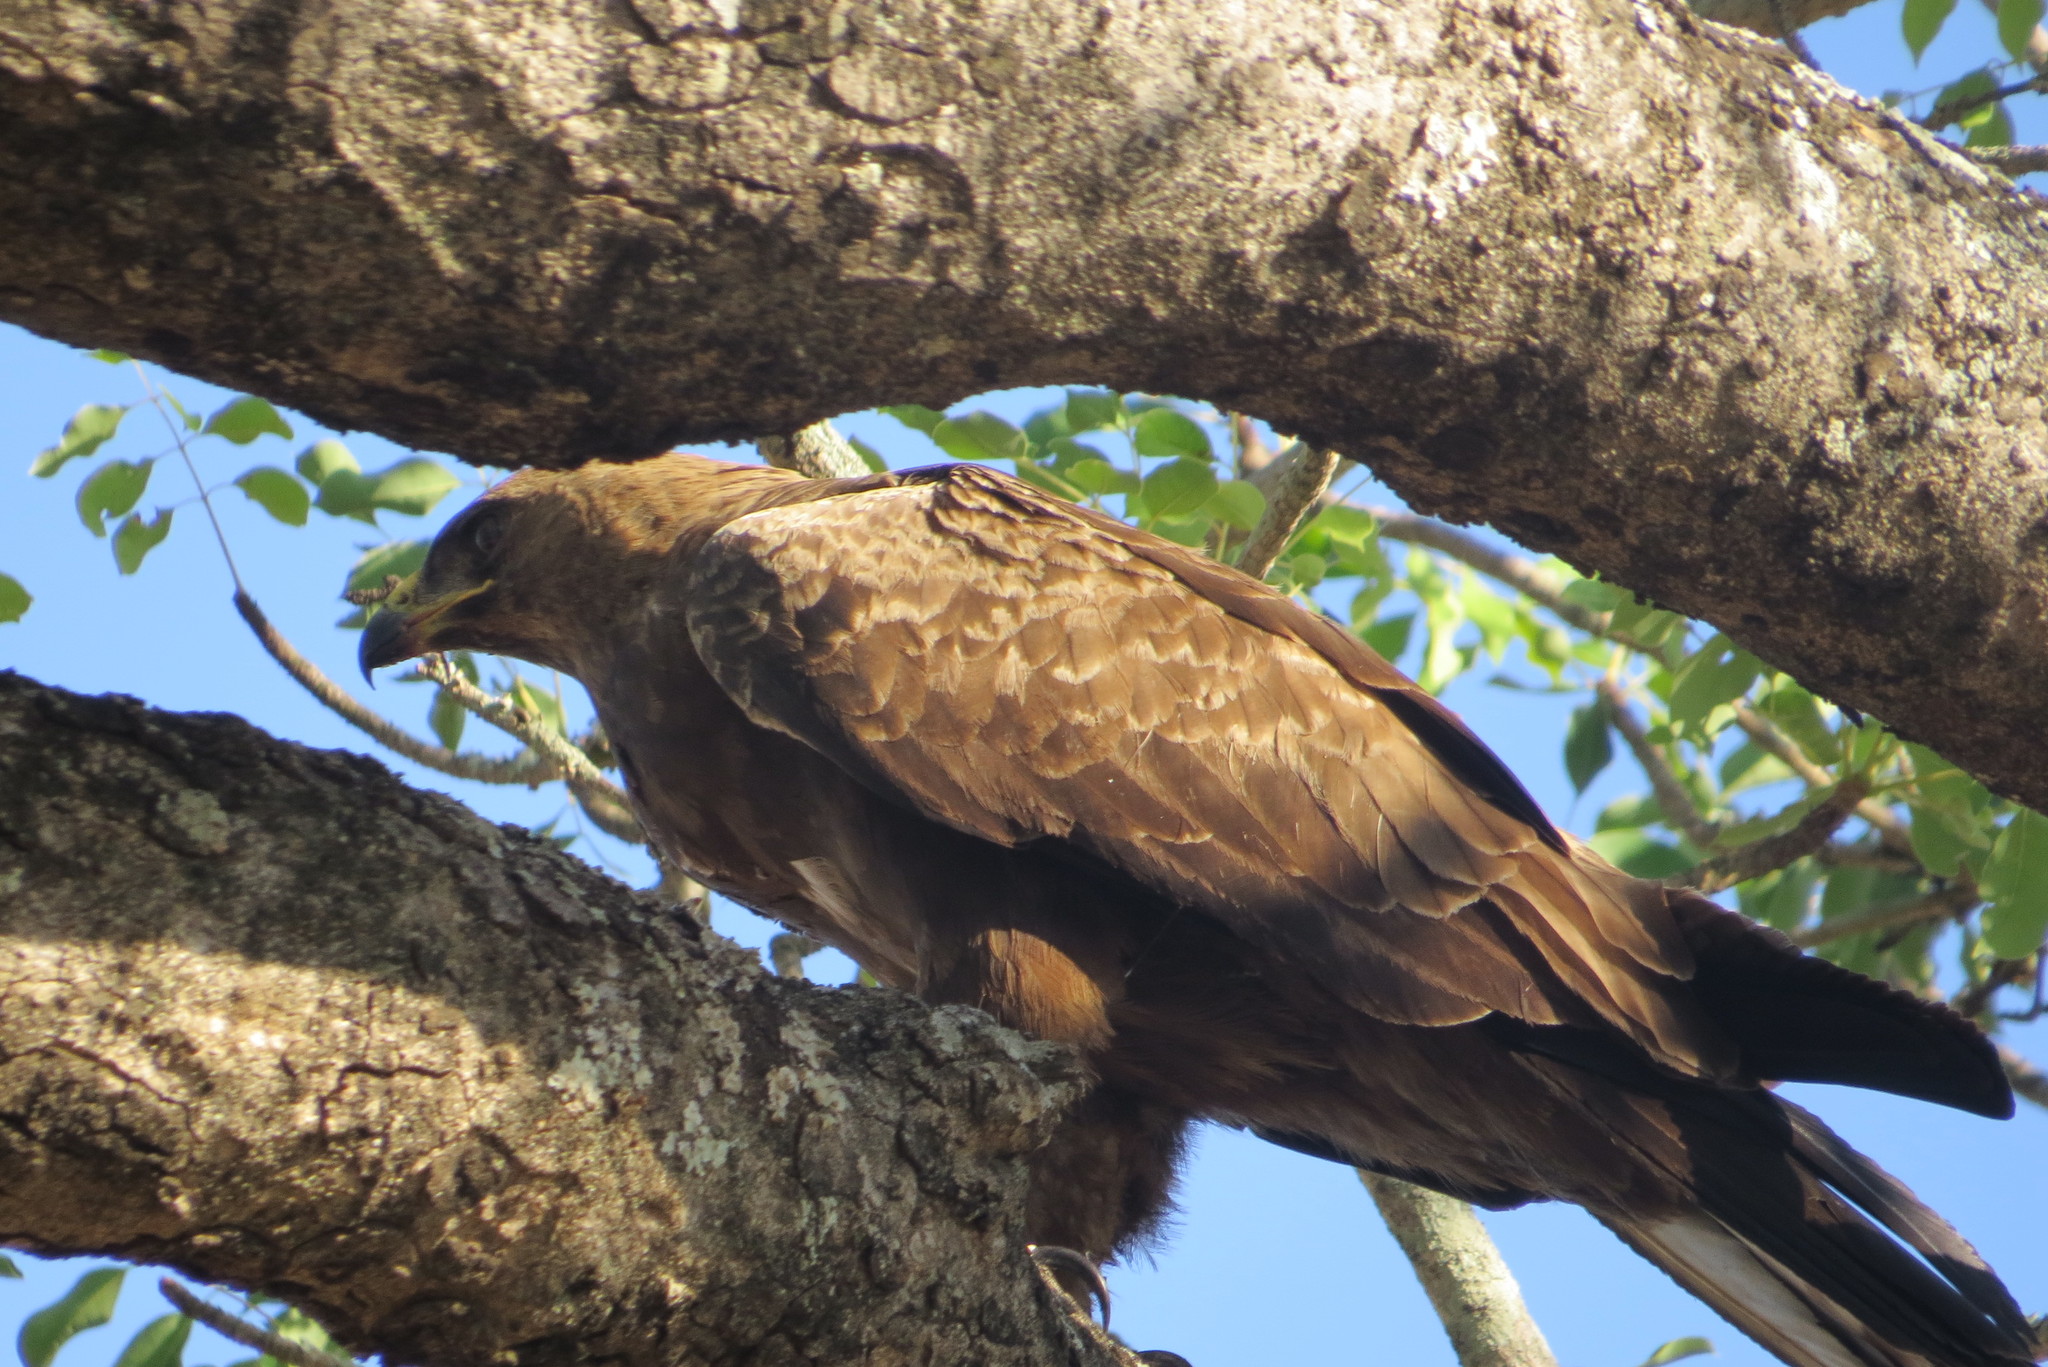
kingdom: Animalia
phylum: Chordata
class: Aves
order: Accipitriformes
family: Accipitridae
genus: Aquila
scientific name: Aquila rapax
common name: Tawny eagle
